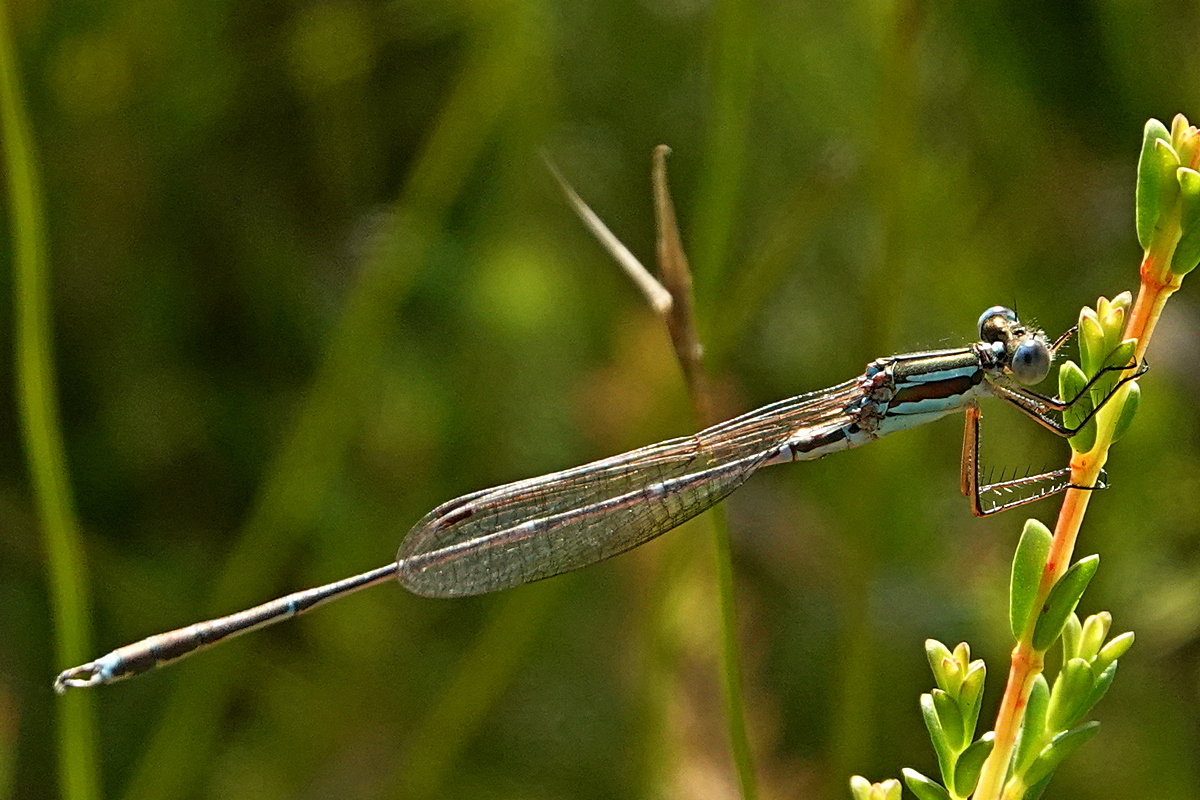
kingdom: Animalia
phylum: Arthropoda
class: Insecta
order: Odonata
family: Lestidae
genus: Austrolestes
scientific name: Austrolestes analis
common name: Slender ringtail
